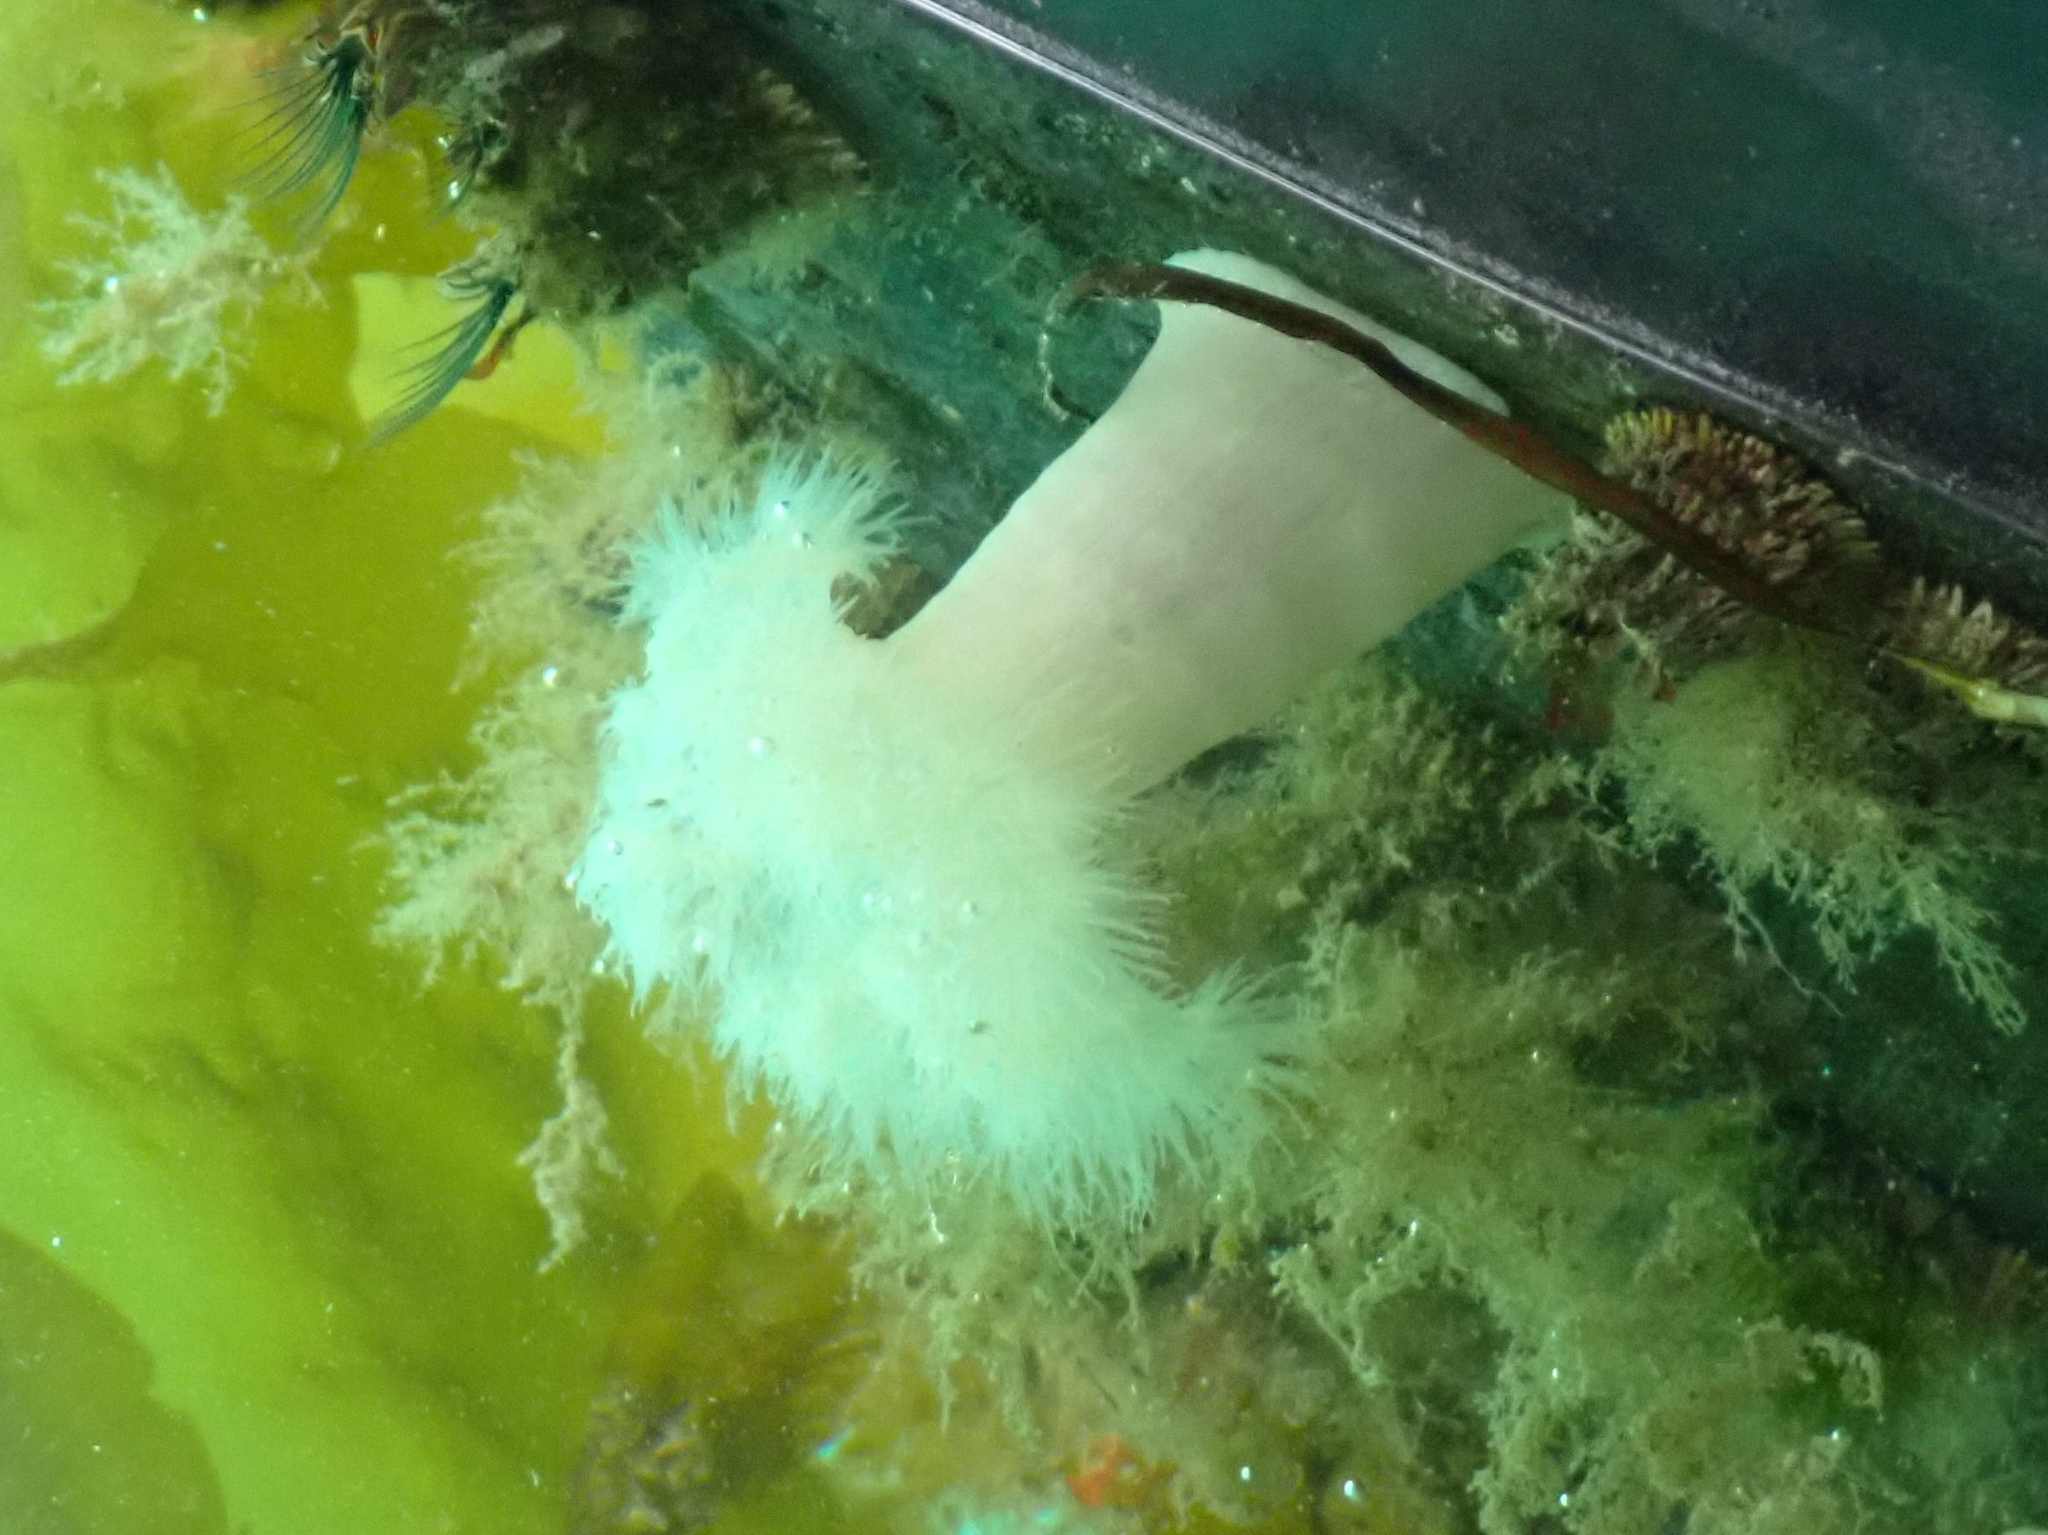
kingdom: Animalia
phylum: Cnidaria
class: Anthozoa
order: Actiniaria
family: Metridiidae
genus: Metridium
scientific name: Metridium farcimen
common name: Gigantic anemone
